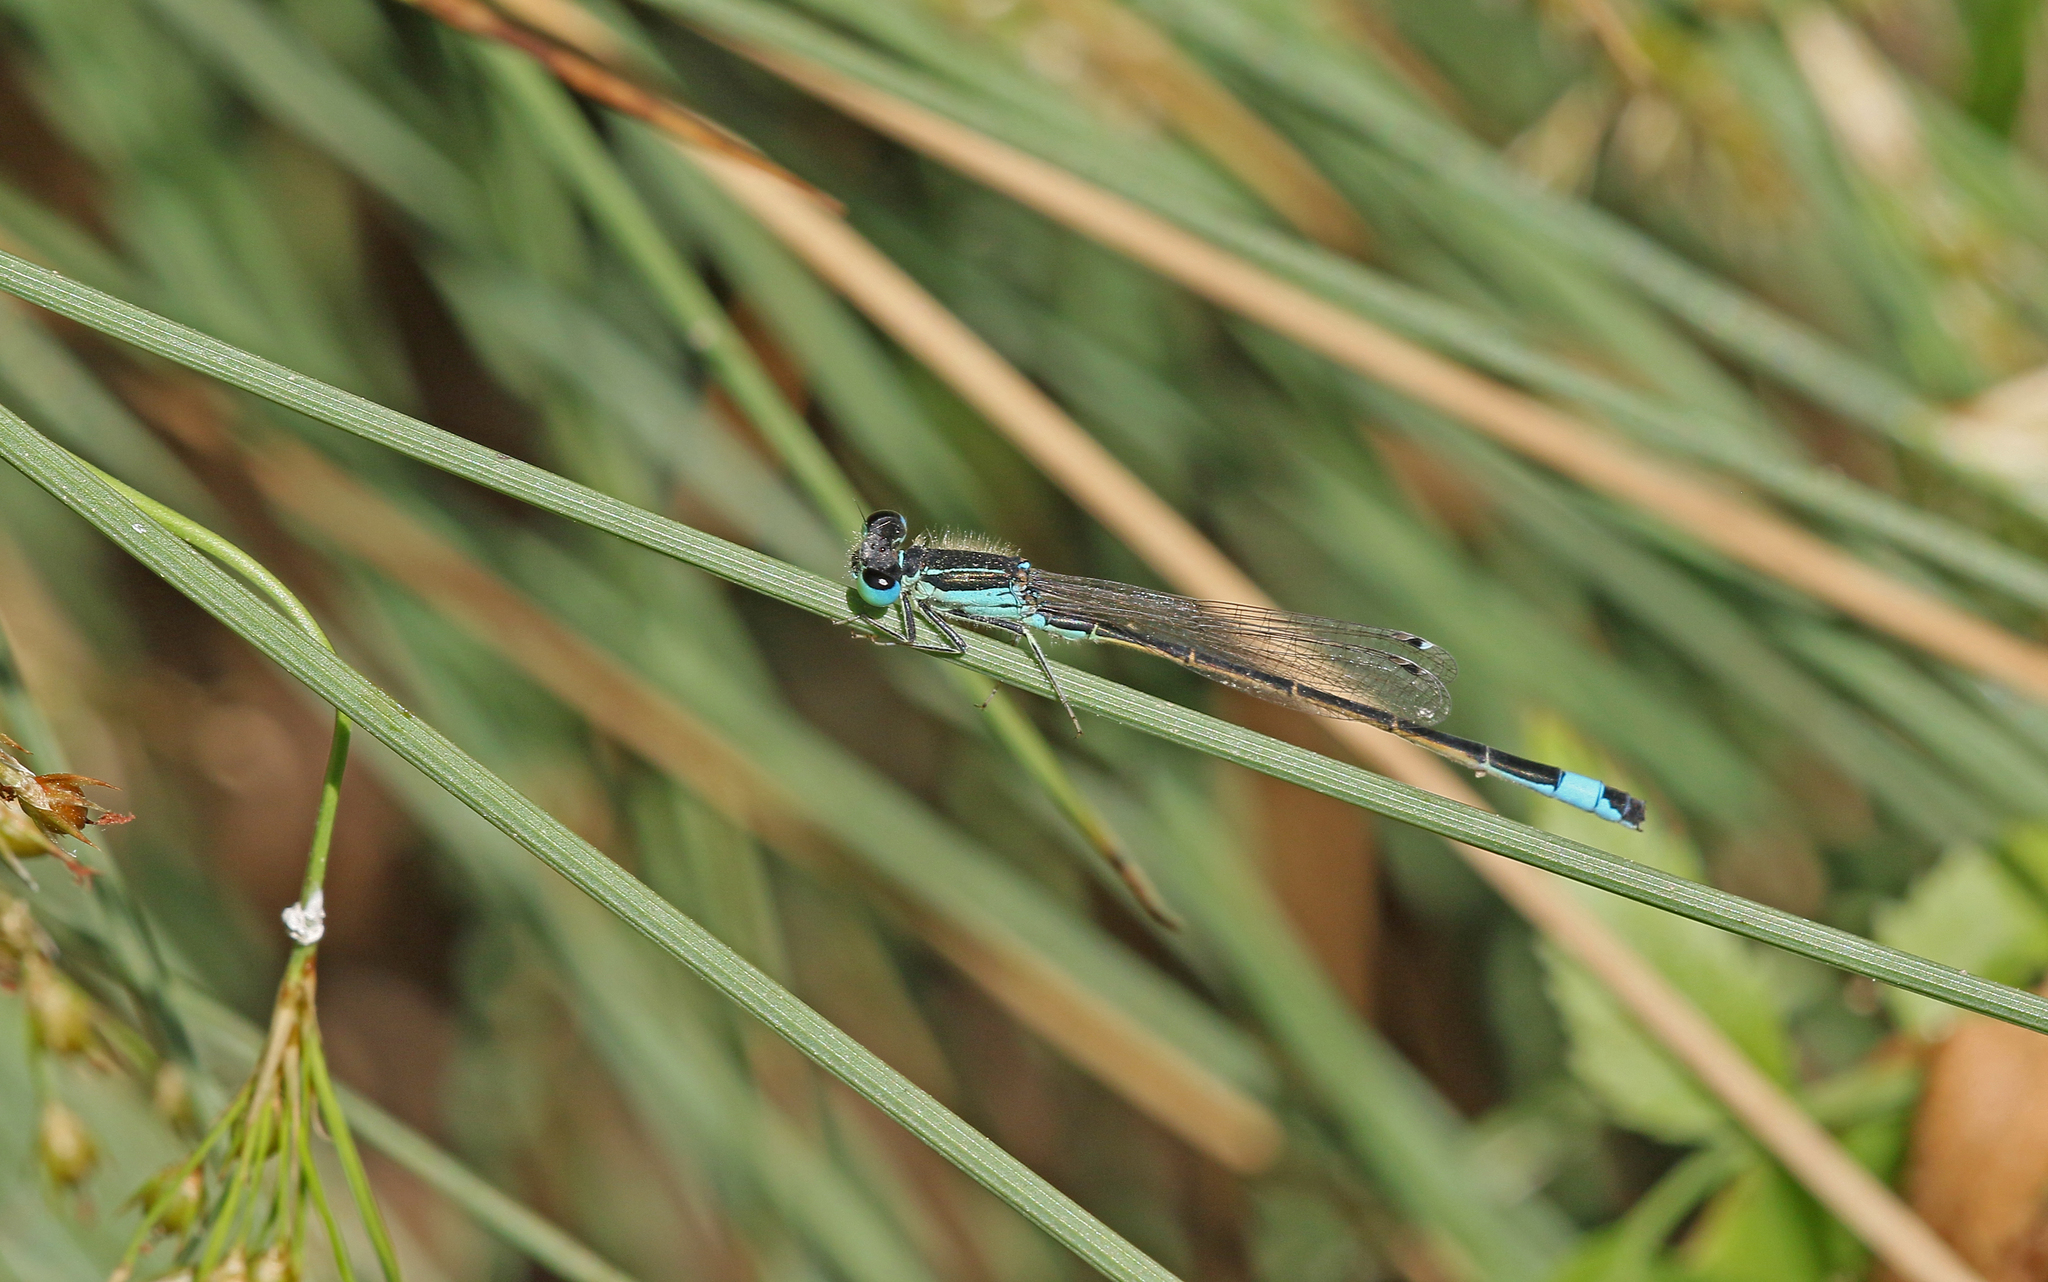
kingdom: Animalia
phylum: Arthropoda
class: Insecta
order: Odonata
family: Coenagrionidae
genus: Ischnura
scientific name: Ischnura graellsii
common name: Iberian bluetail
